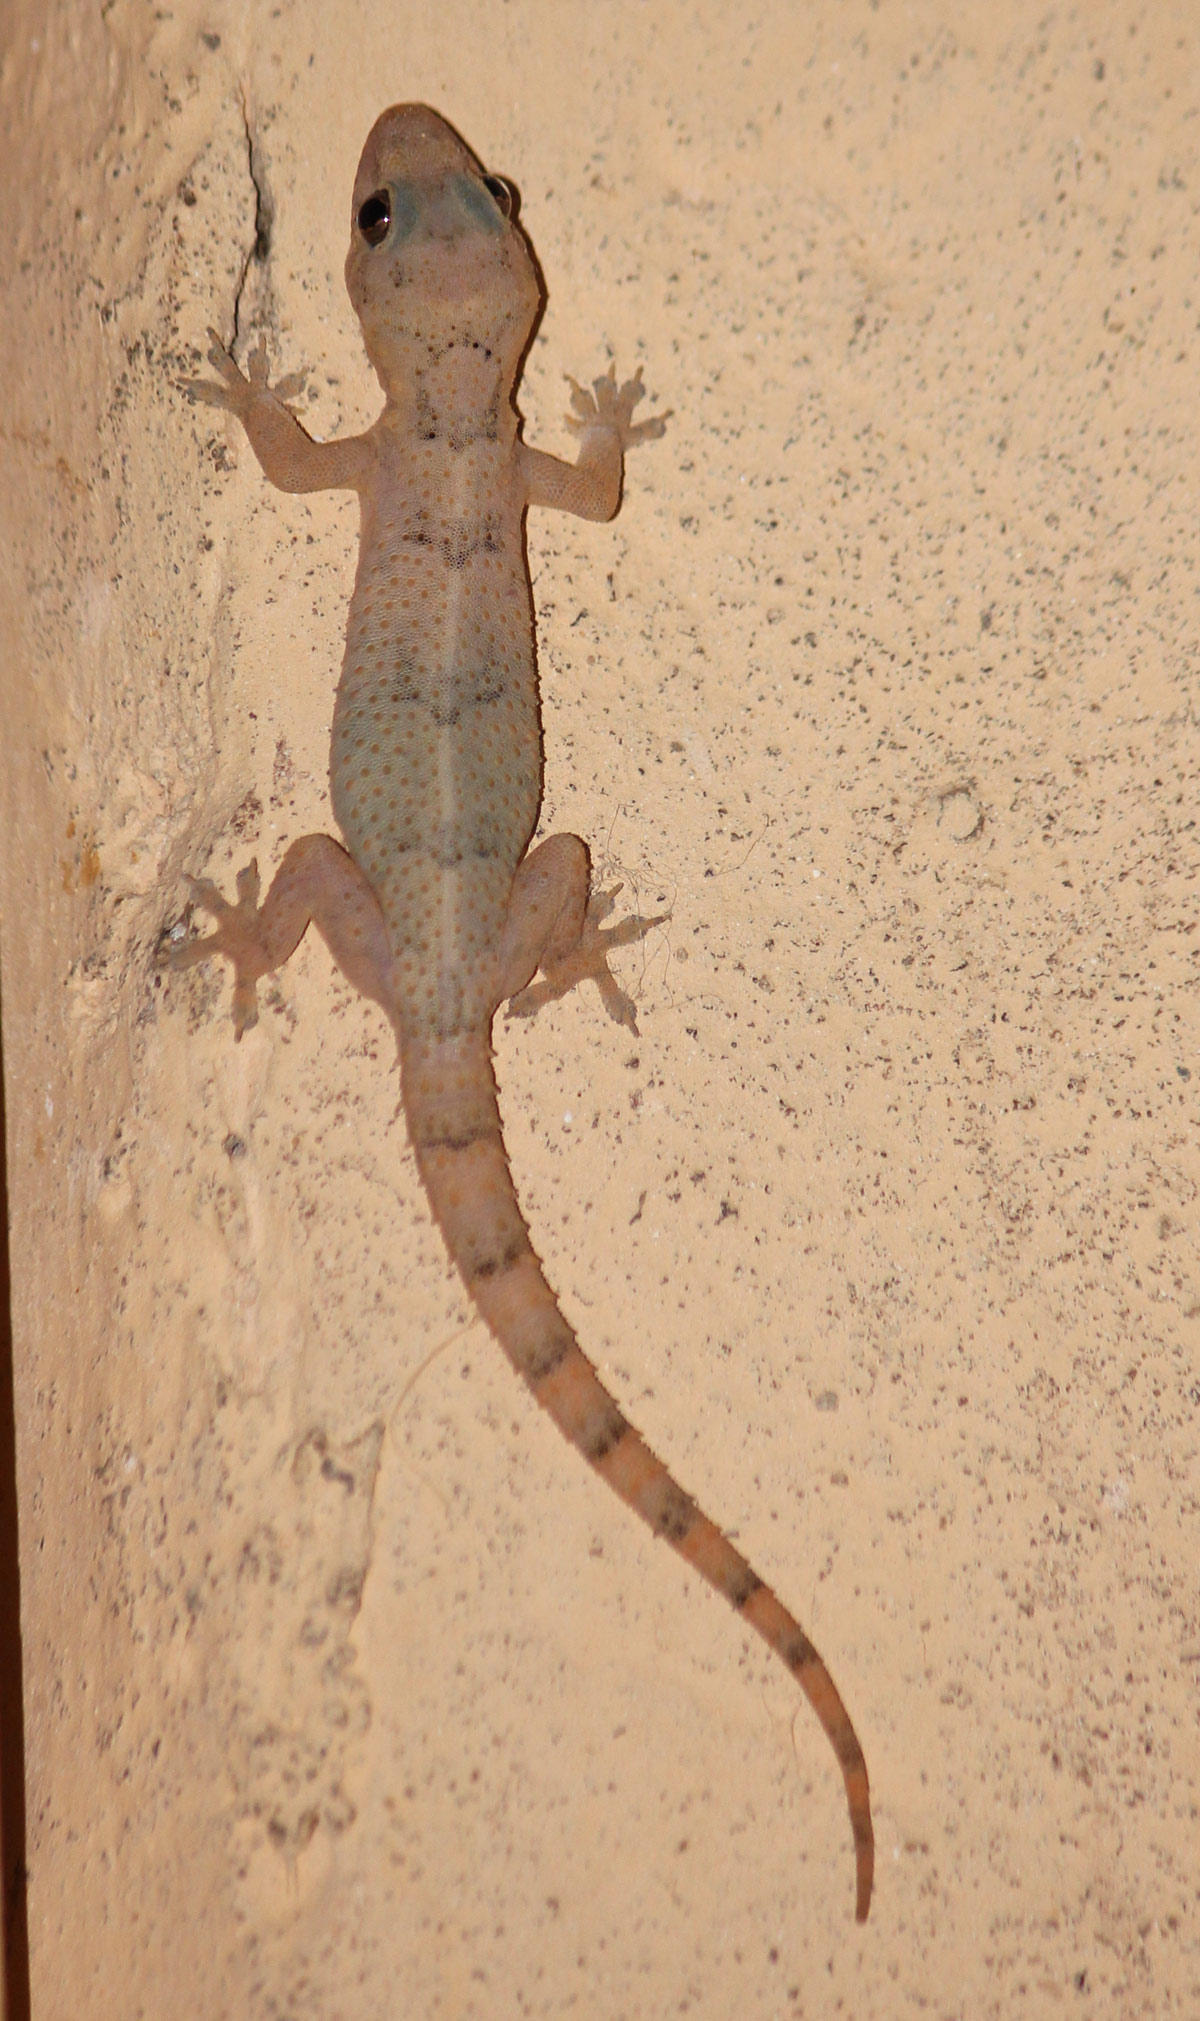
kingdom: Animalia
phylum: Chordata
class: Squamata
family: Gekkonidae
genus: Hemidactylus
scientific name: Hemidactylus mabouia
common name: House gecko
